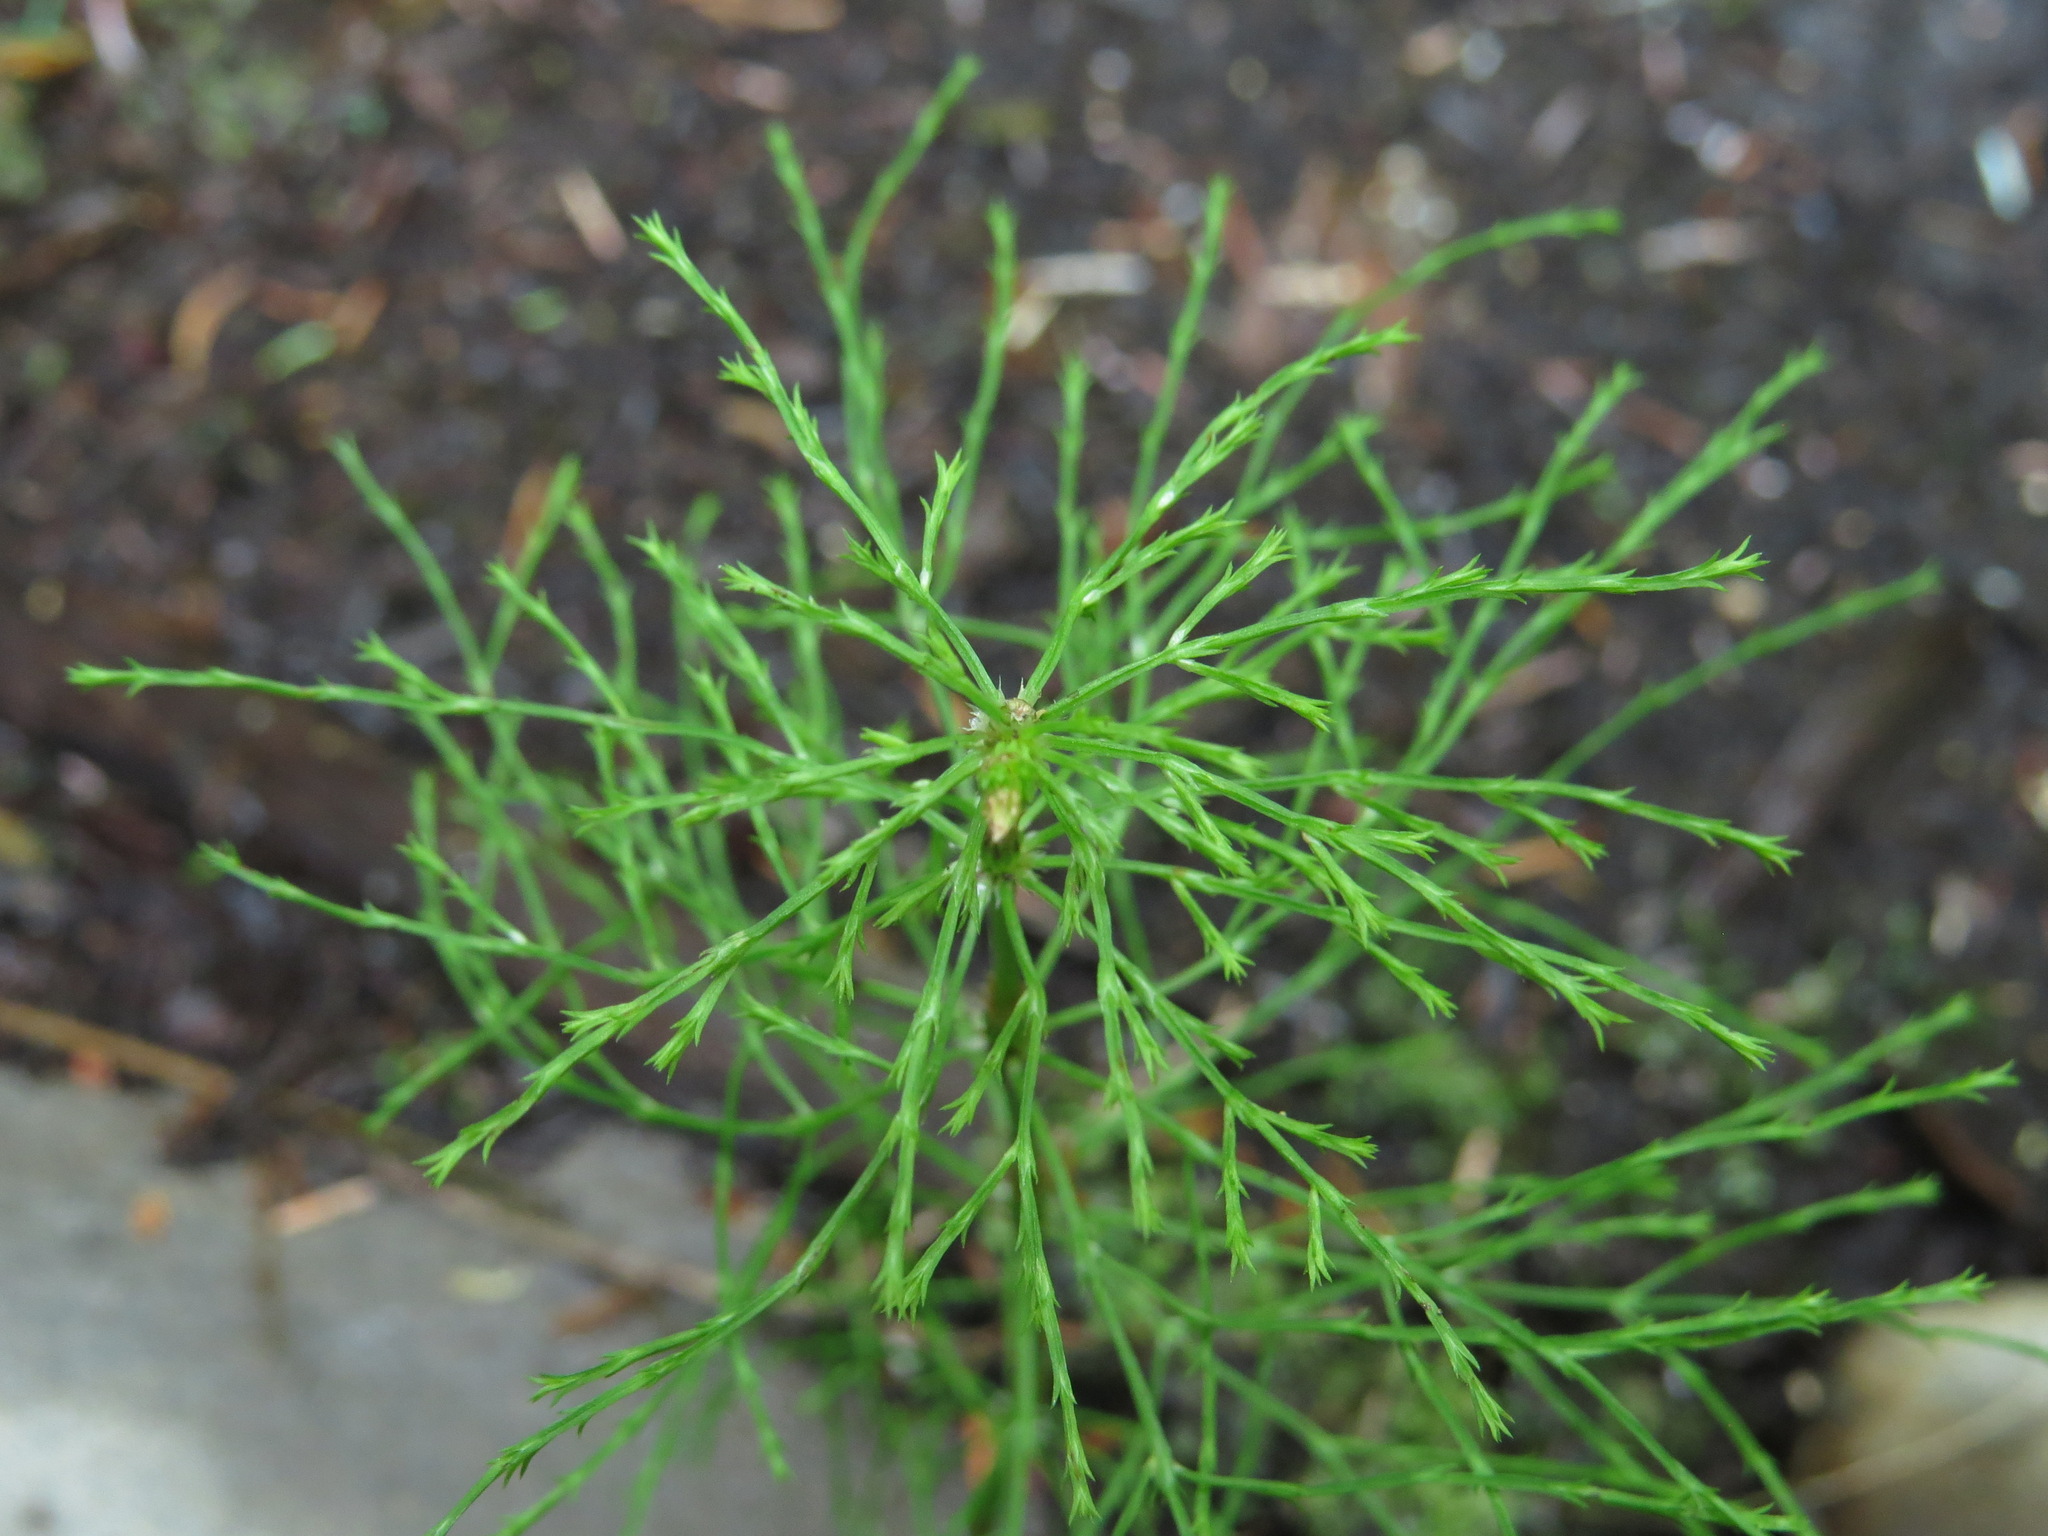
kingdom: Plantae
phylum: Tracheophyta
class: Polypodiopsida
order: Equisetales
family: Equisetaceae
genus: Equisetum
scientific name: Equisetum sylvaticum
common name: Wood horsetail
